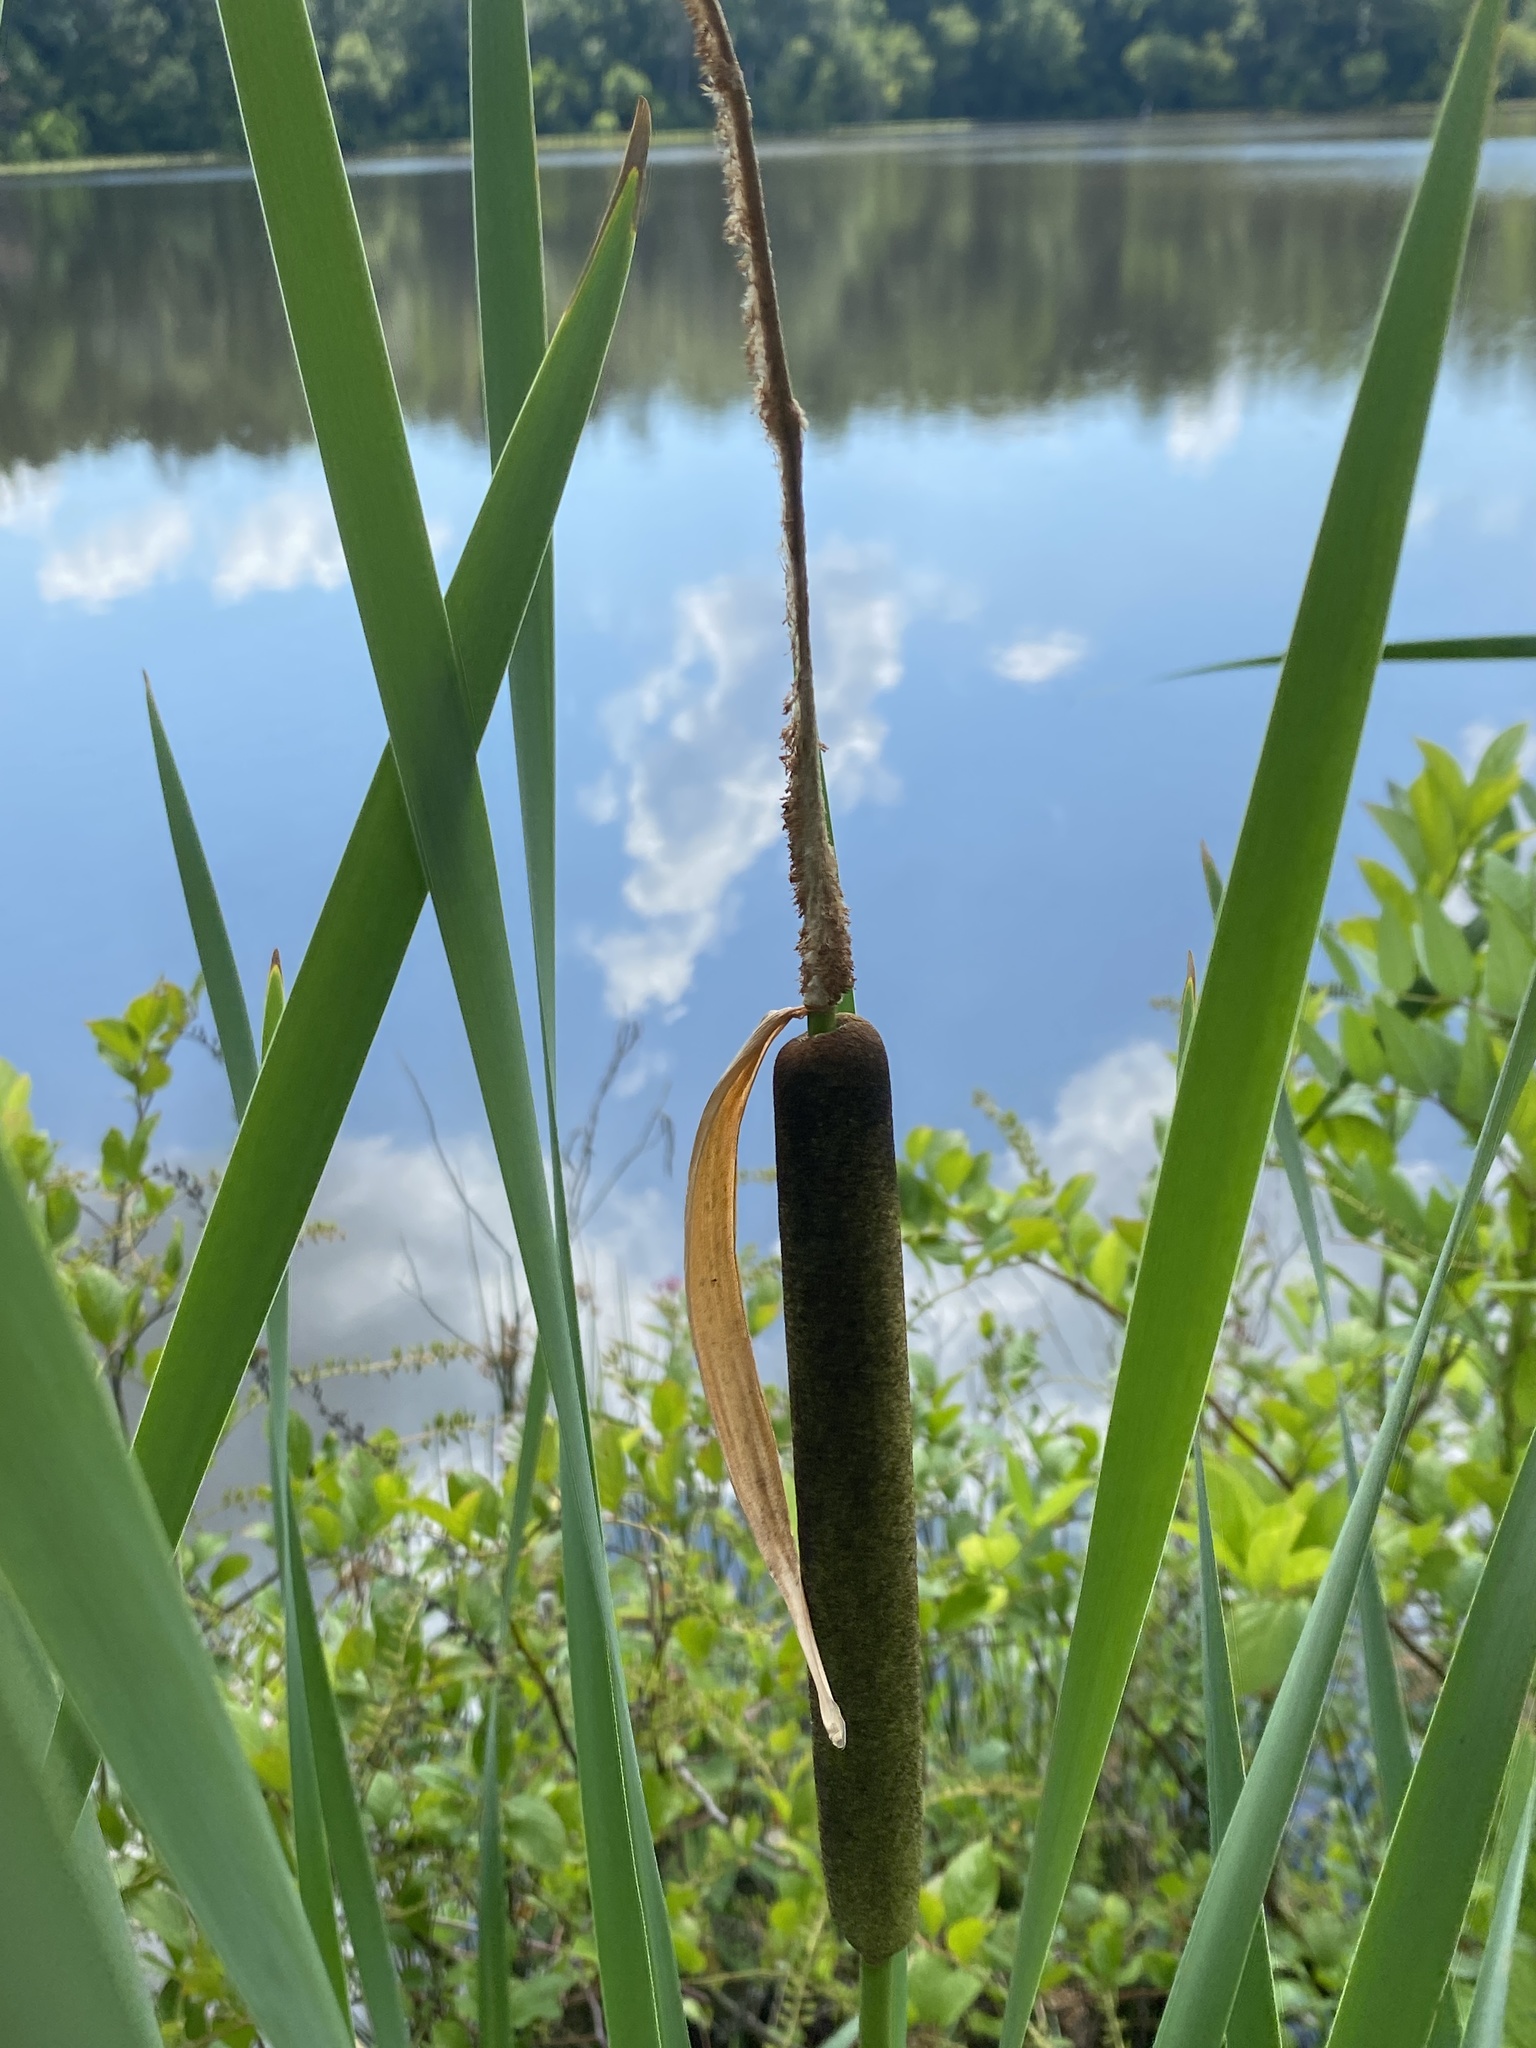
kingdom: Plantae
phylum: Tracheophyta
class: Liliopsida
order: Poales
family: Typhaceae
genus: Typha
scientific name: Typha latifolia
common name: Broadleaf cattail
